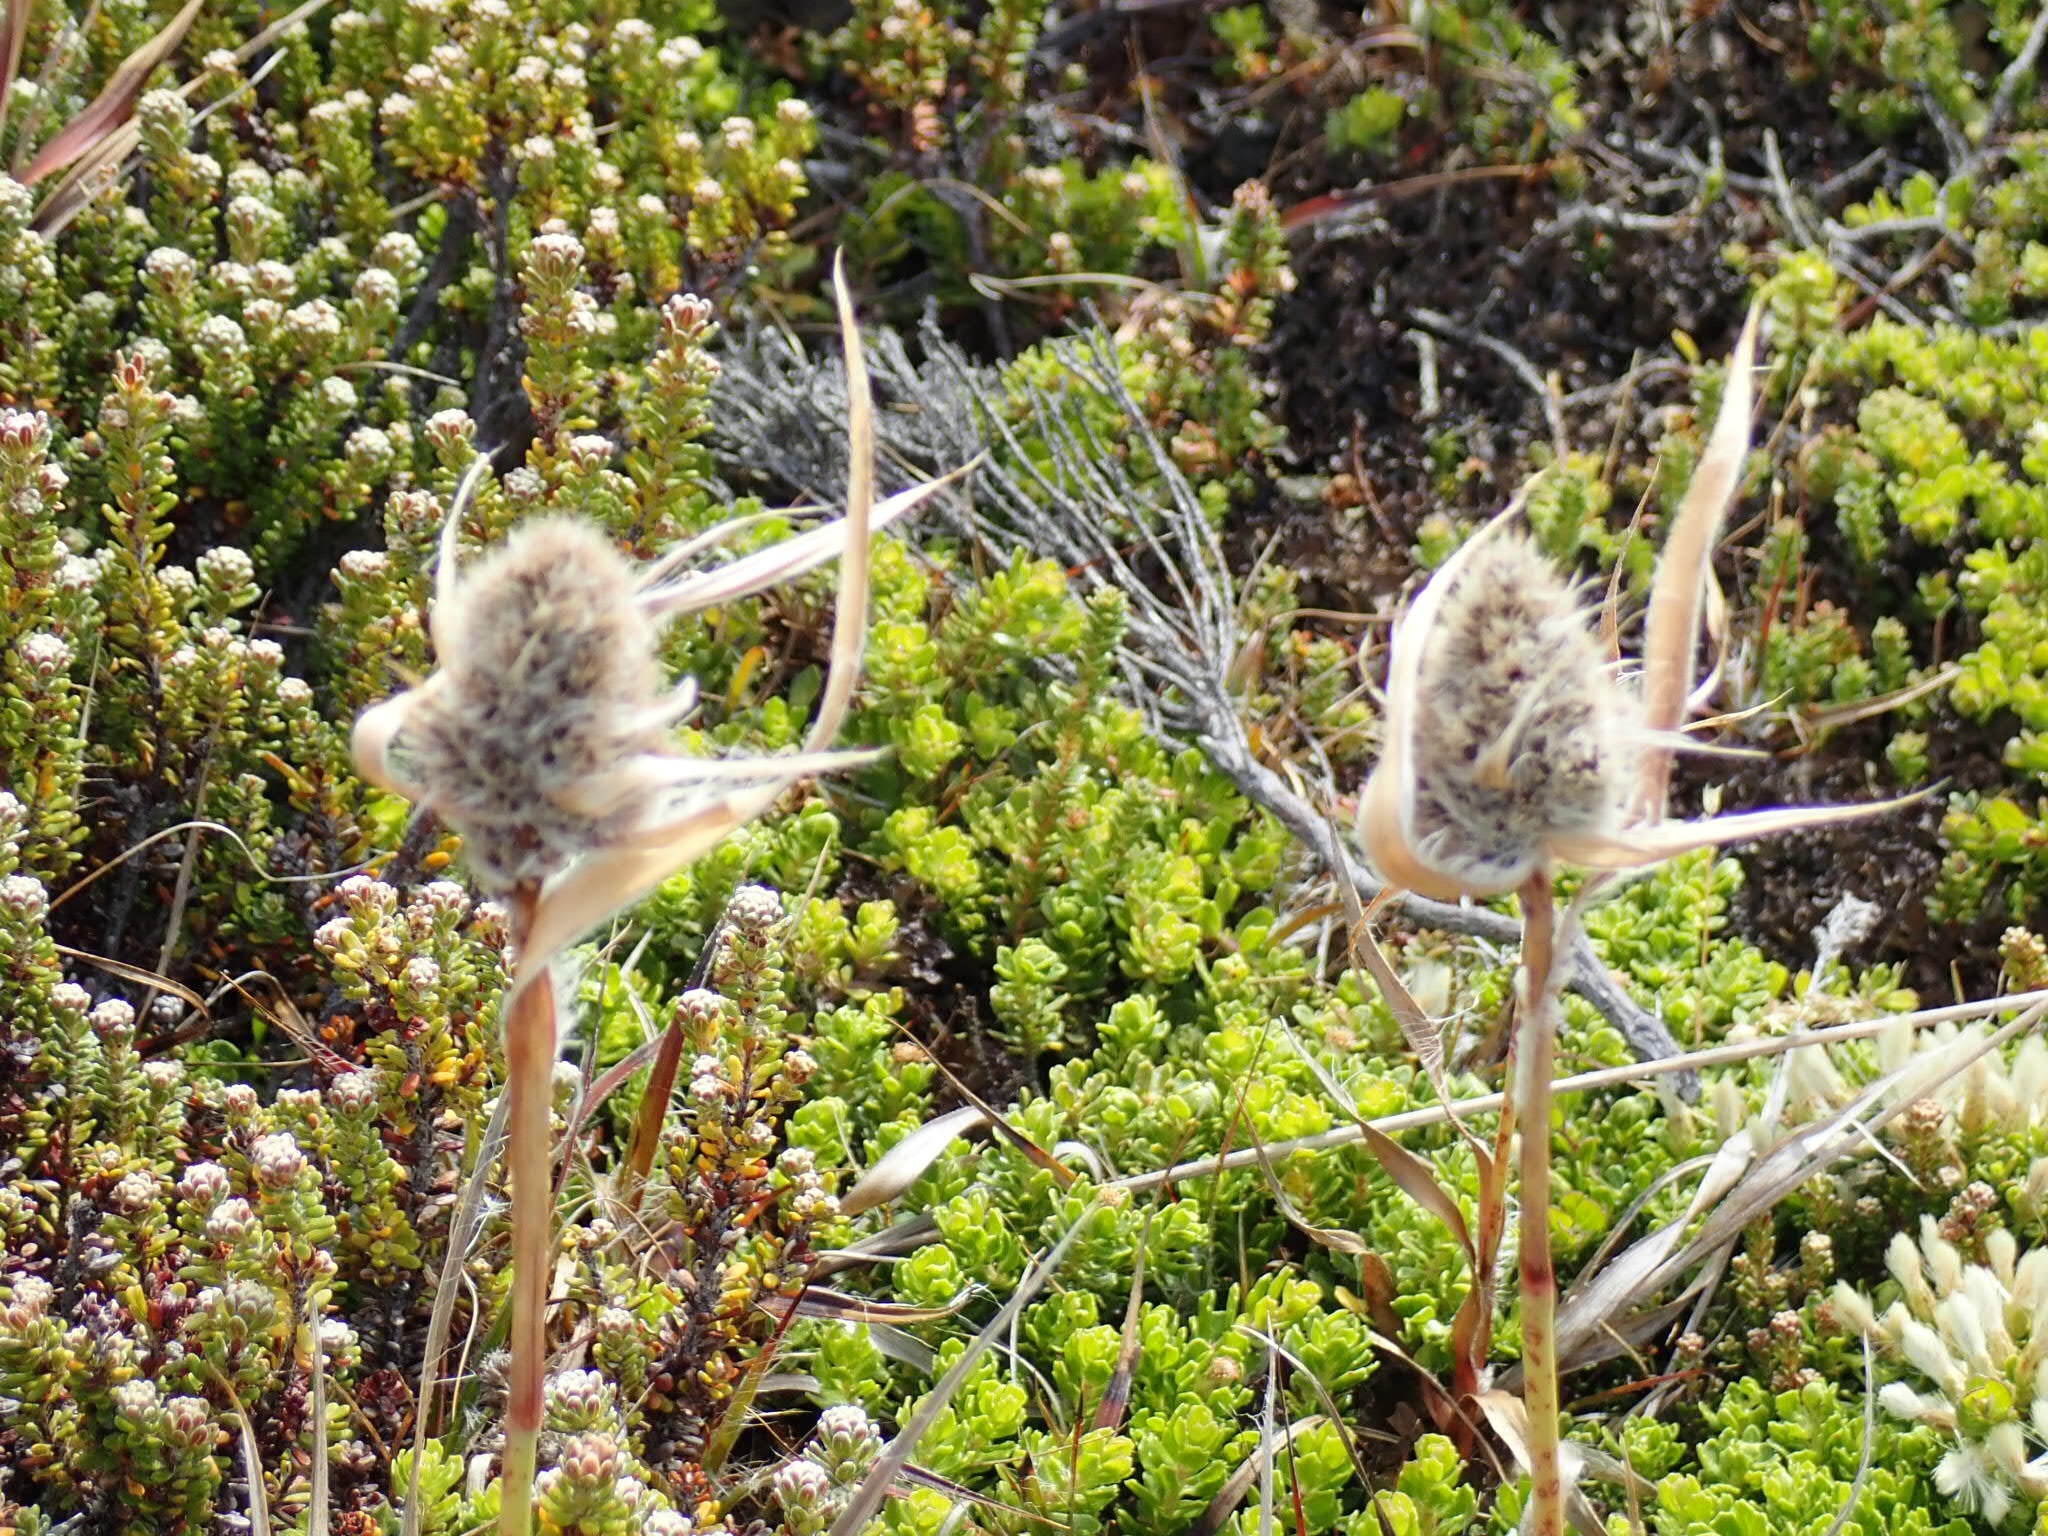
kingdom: Plantae
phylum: Tracheophyta
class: Liliopsida
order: Poales
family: Juncaceae
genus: Luzula
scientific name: Luzula alopecurus
